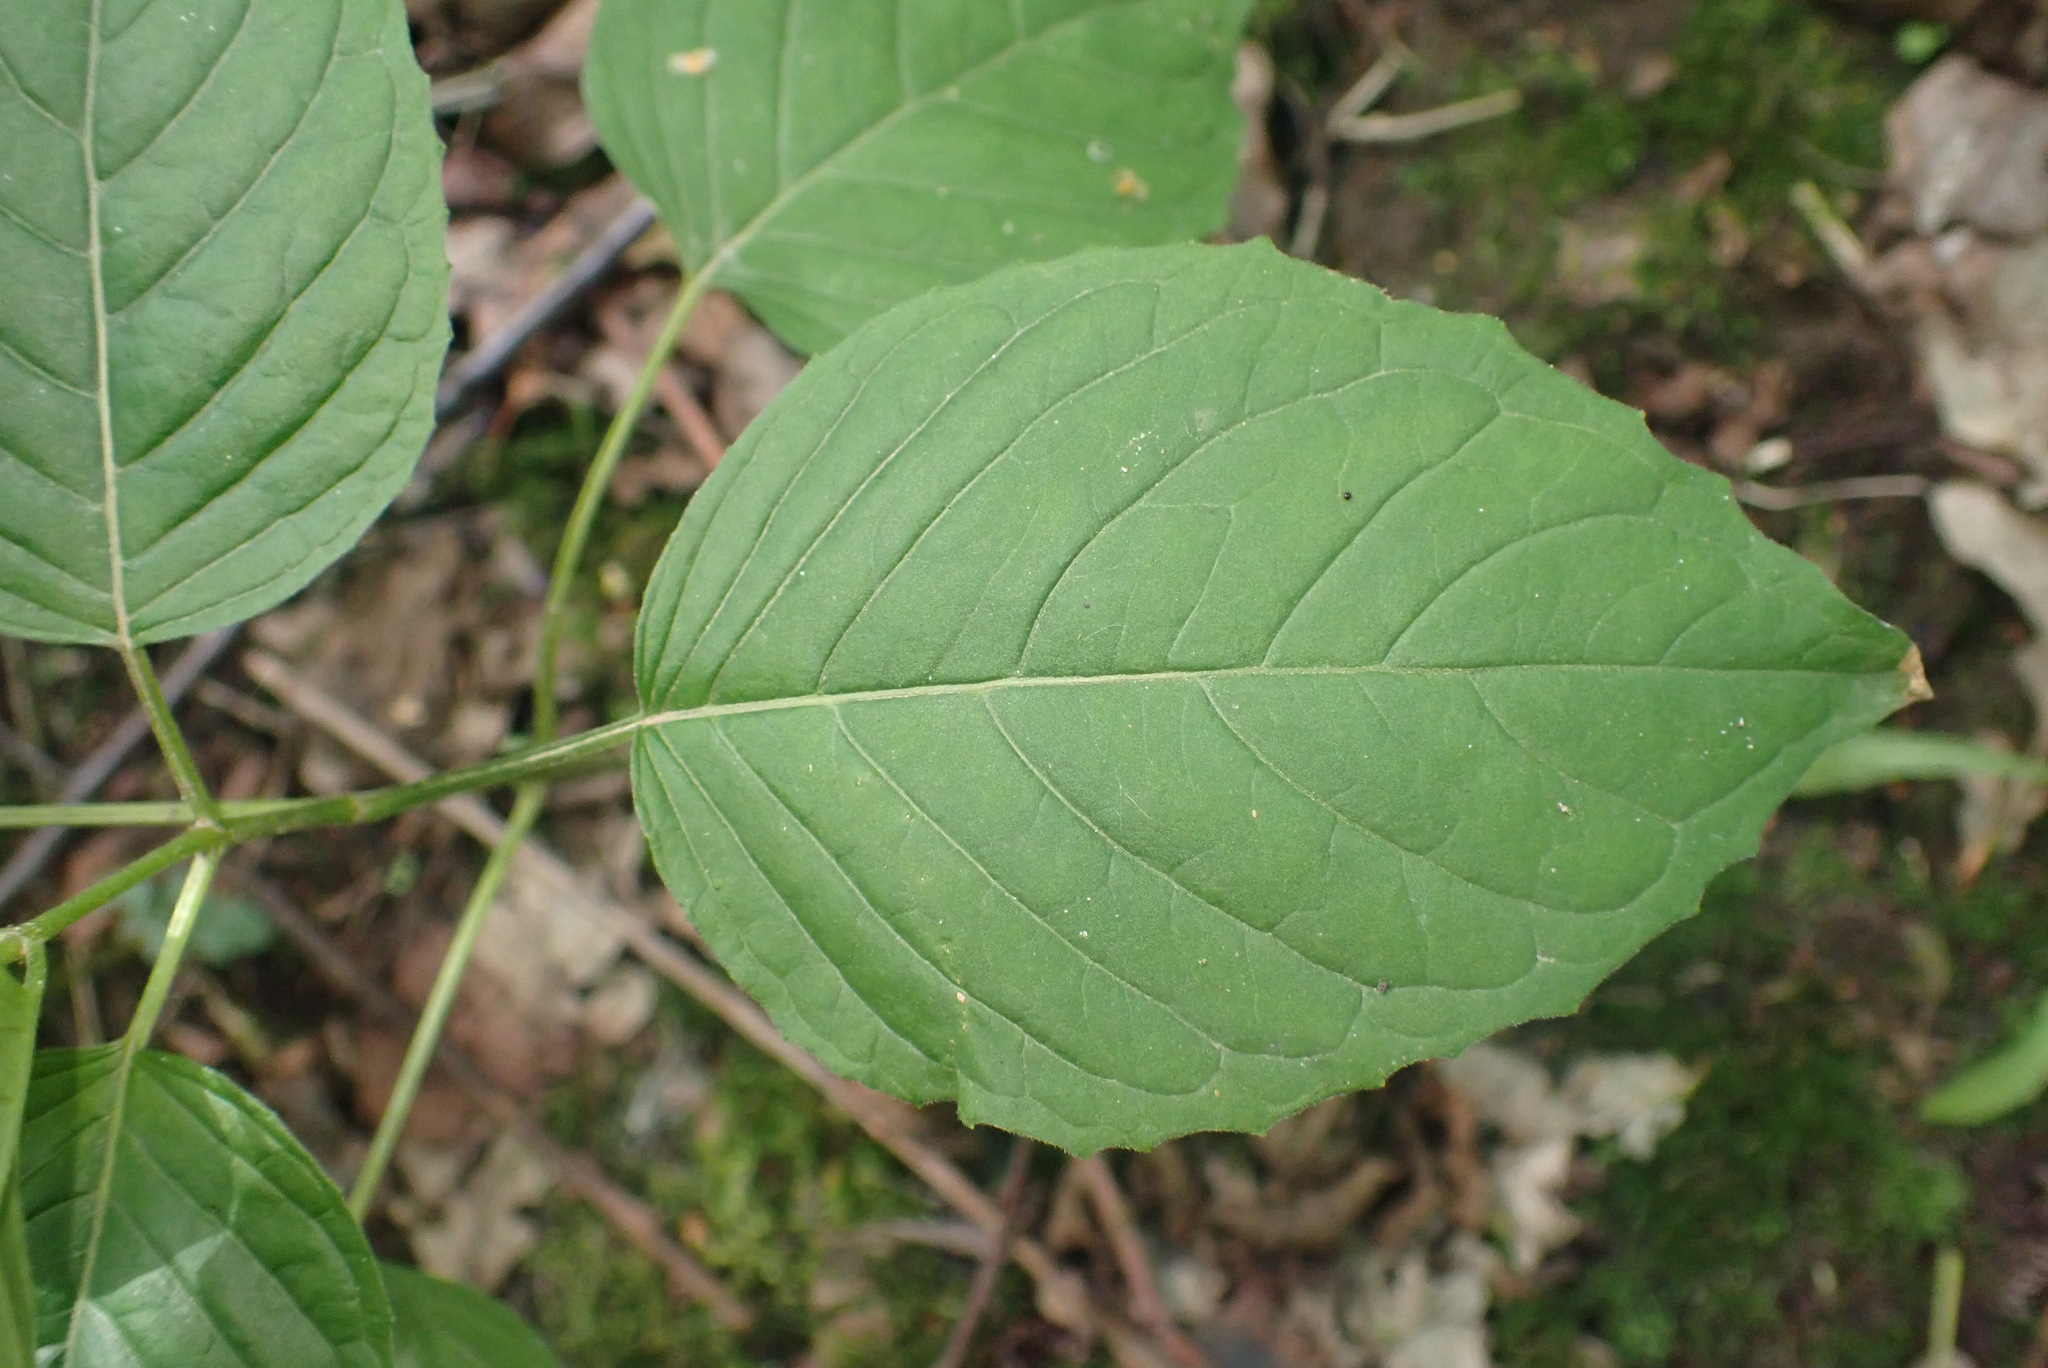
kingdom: Plantae
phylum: Tracheophyta
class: Magnoliopsida
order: Myrtales
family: Onagraceae
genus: Circaea
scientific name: Circaea lutetiana
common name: Enchanter's-nightshade
